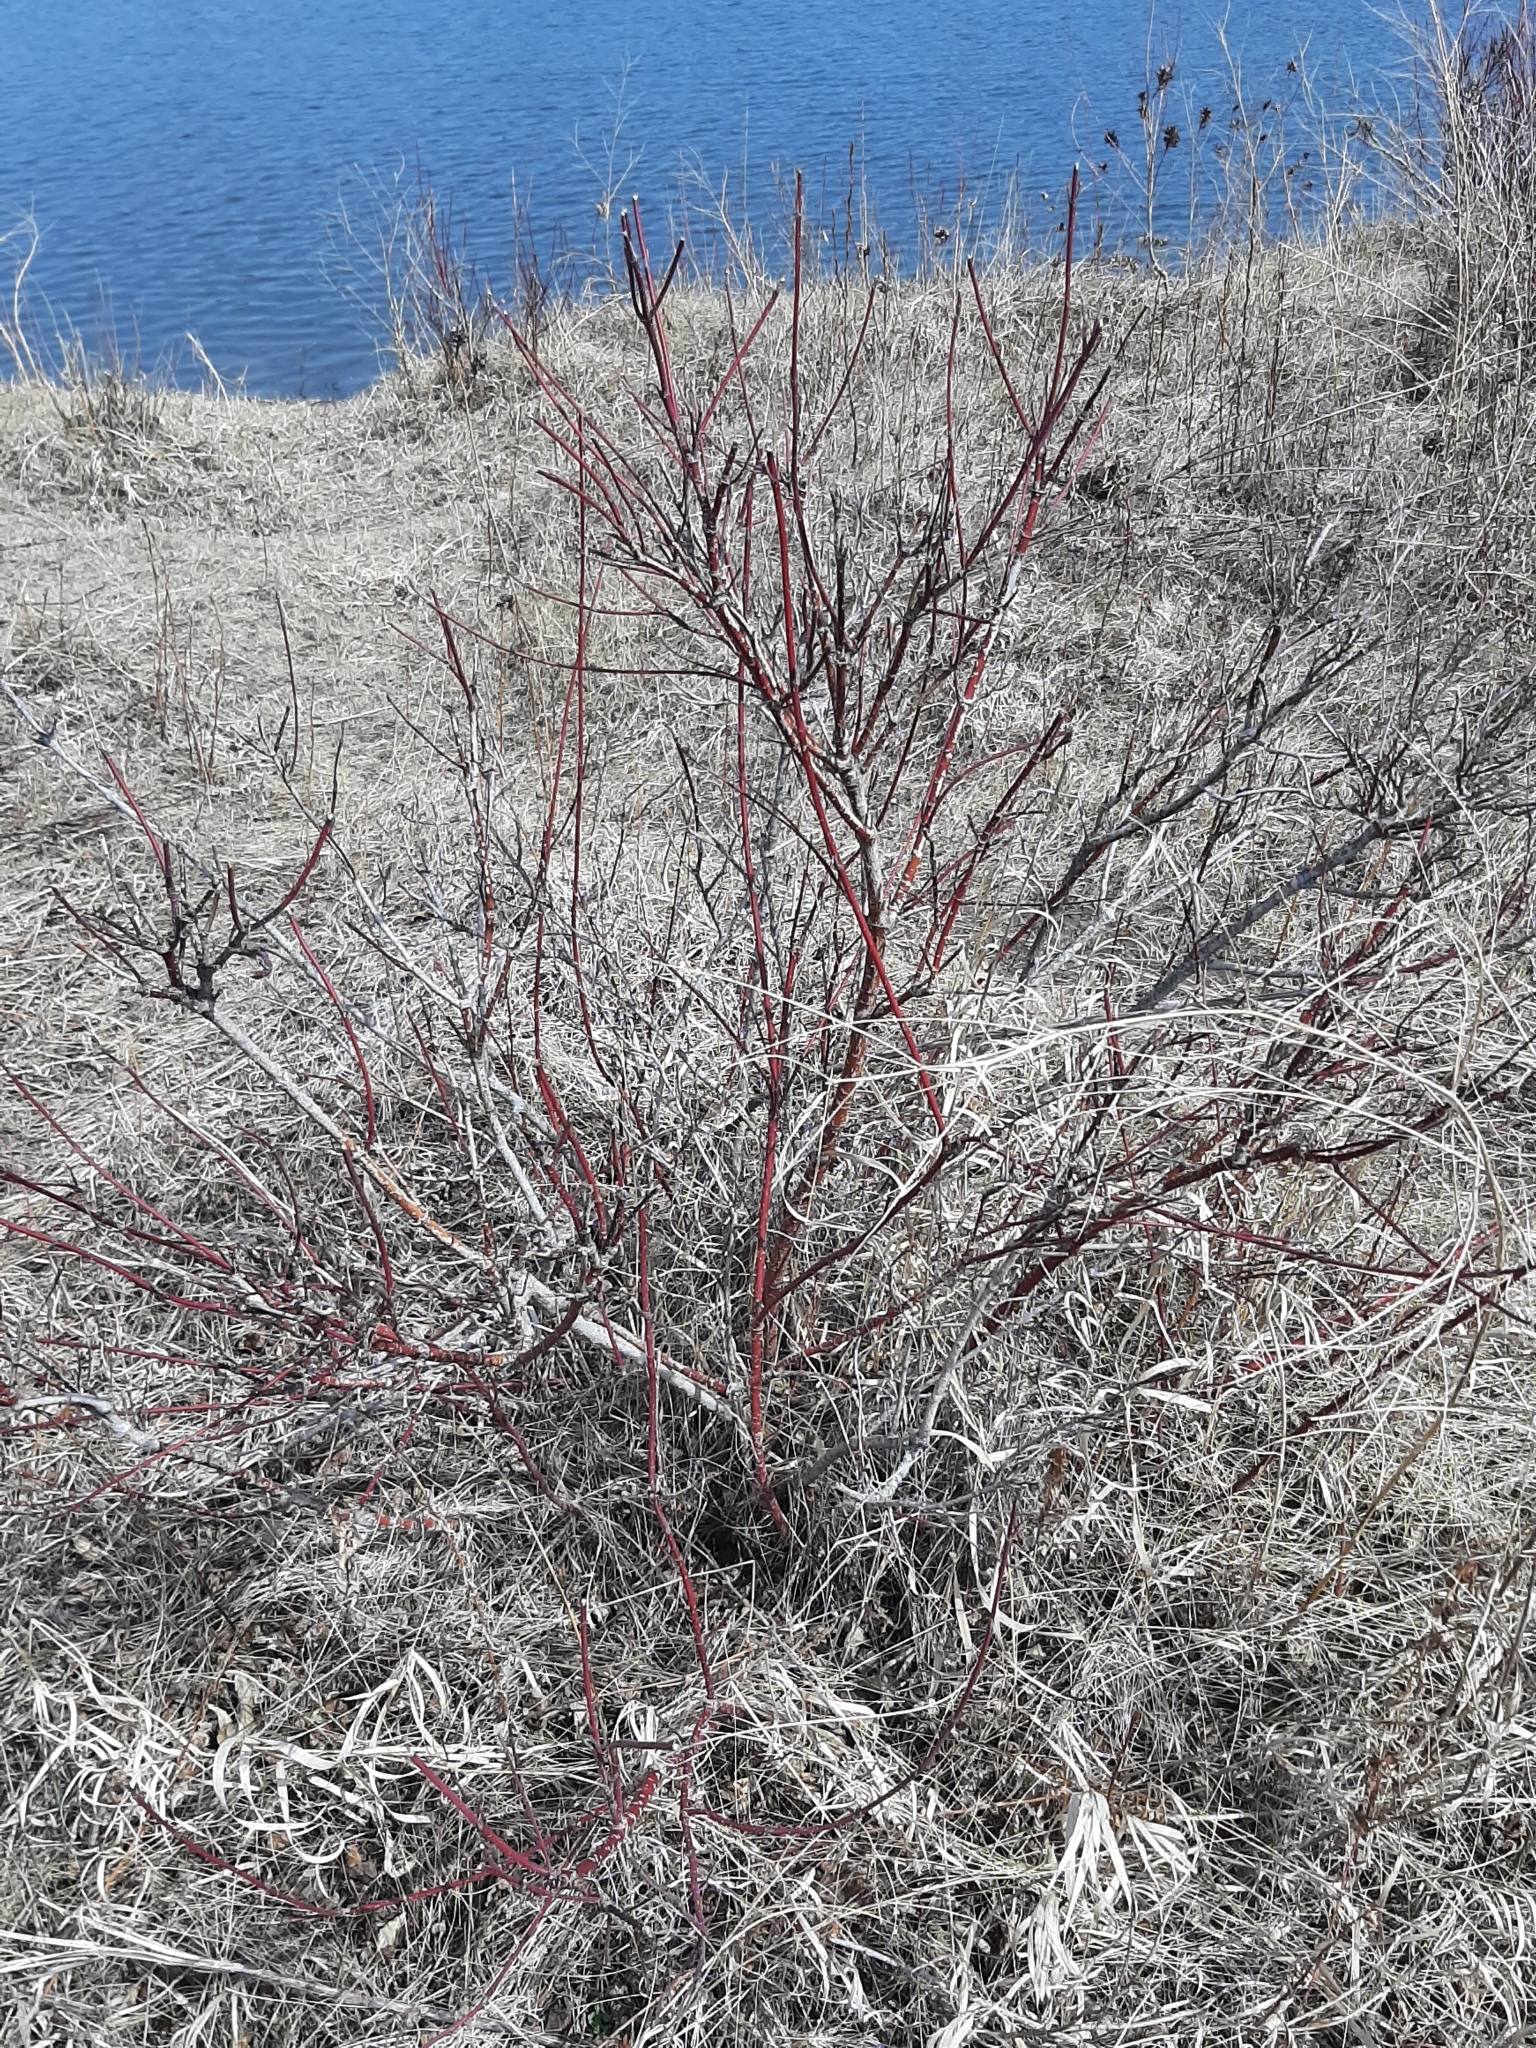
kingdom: Plantae
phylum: Tracheophyta
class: Magnoliopsida
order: Cornales
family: Cornaceae
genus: Cornus
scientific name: Cornus sericea
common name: Red-osier dogwood
